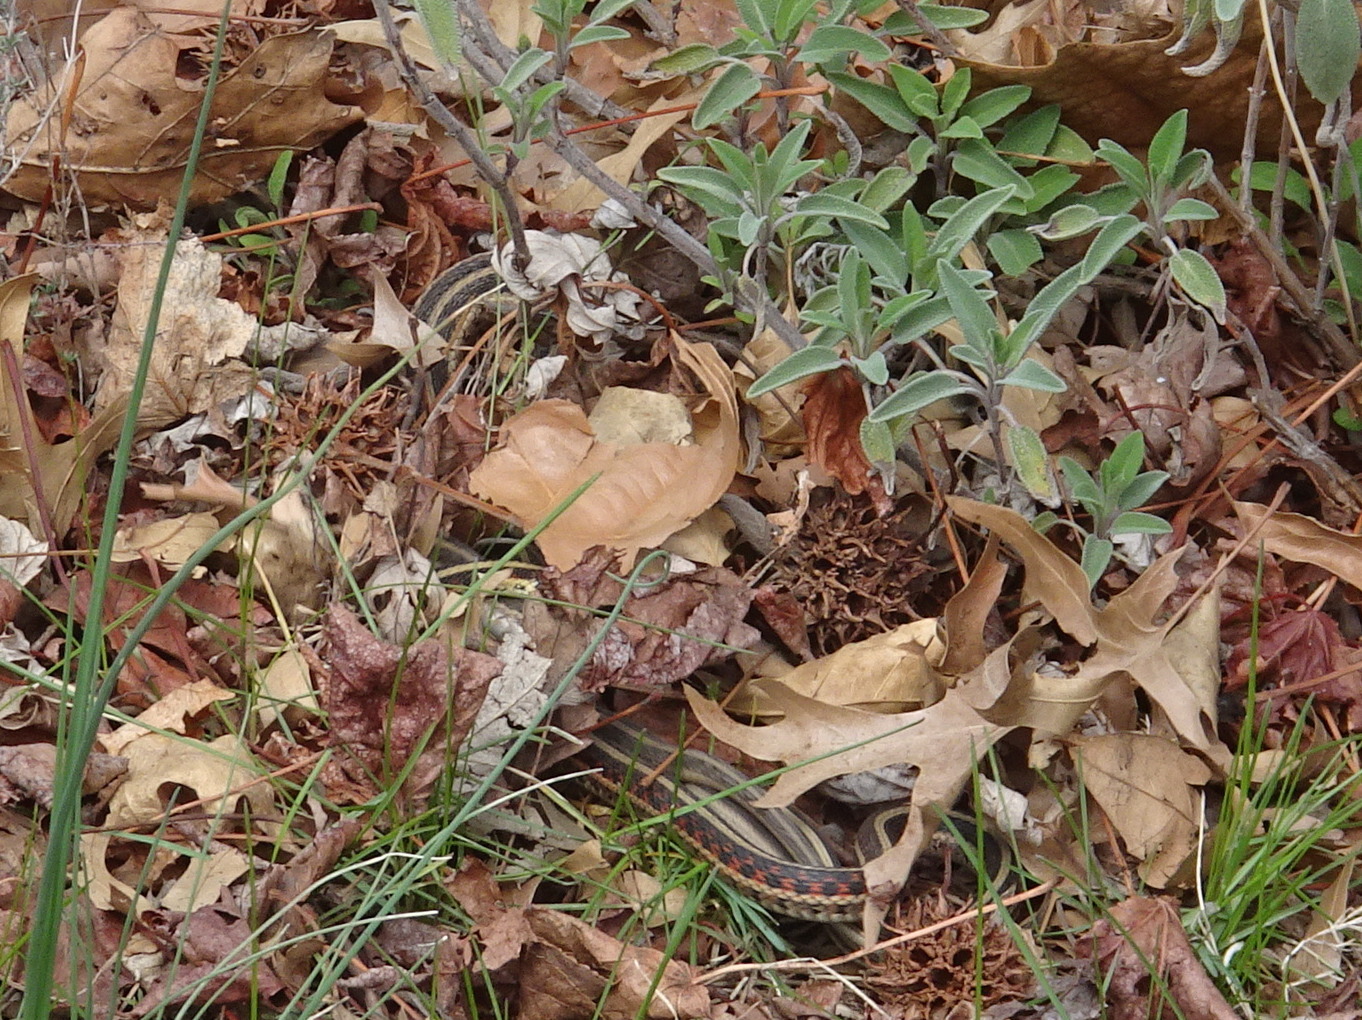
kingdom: Animalia
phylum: Chordata
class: Squamata
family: Colubridae
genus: Thamnophis
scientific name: Thamnophis sirtalis
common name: Common garter snake
